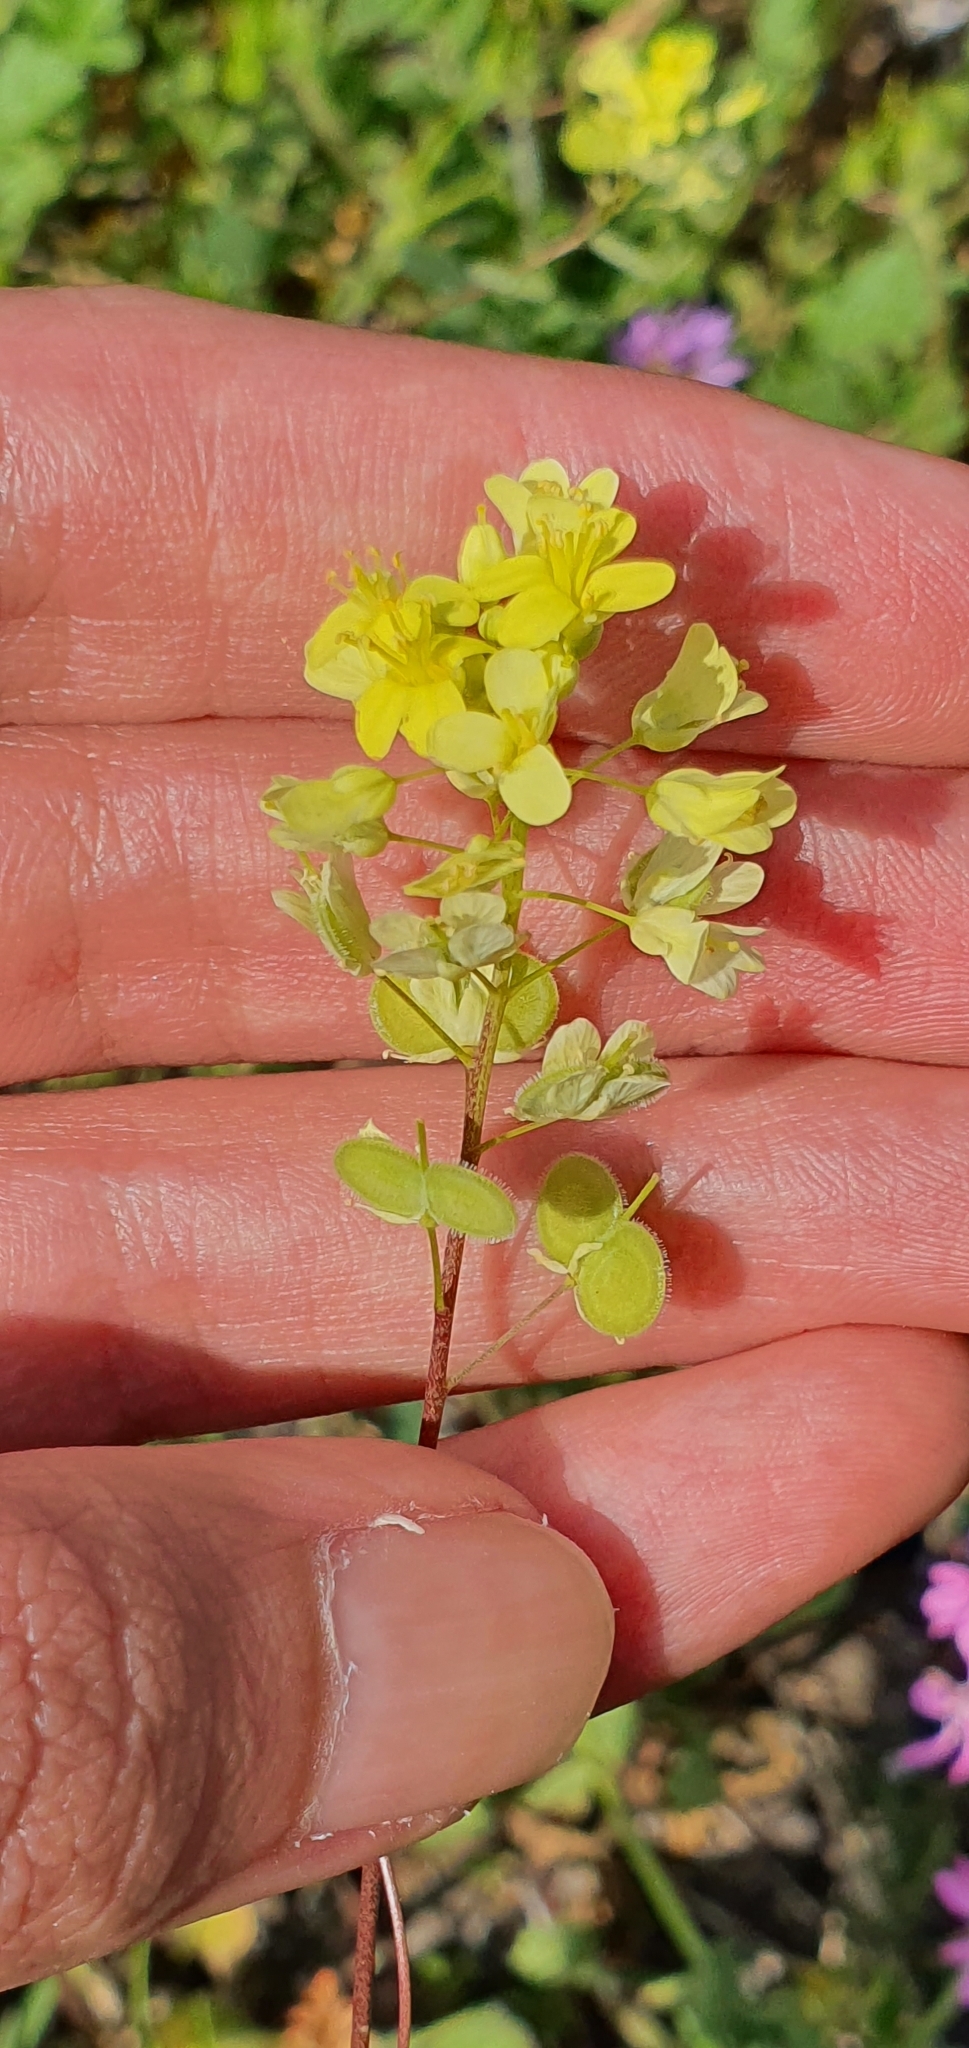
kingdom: Plantae
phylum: Tracheophyta
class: Magnoliopsida
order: Brassicales
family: Brassicaceae
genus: Biscutella
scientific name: Biscutella didyma
